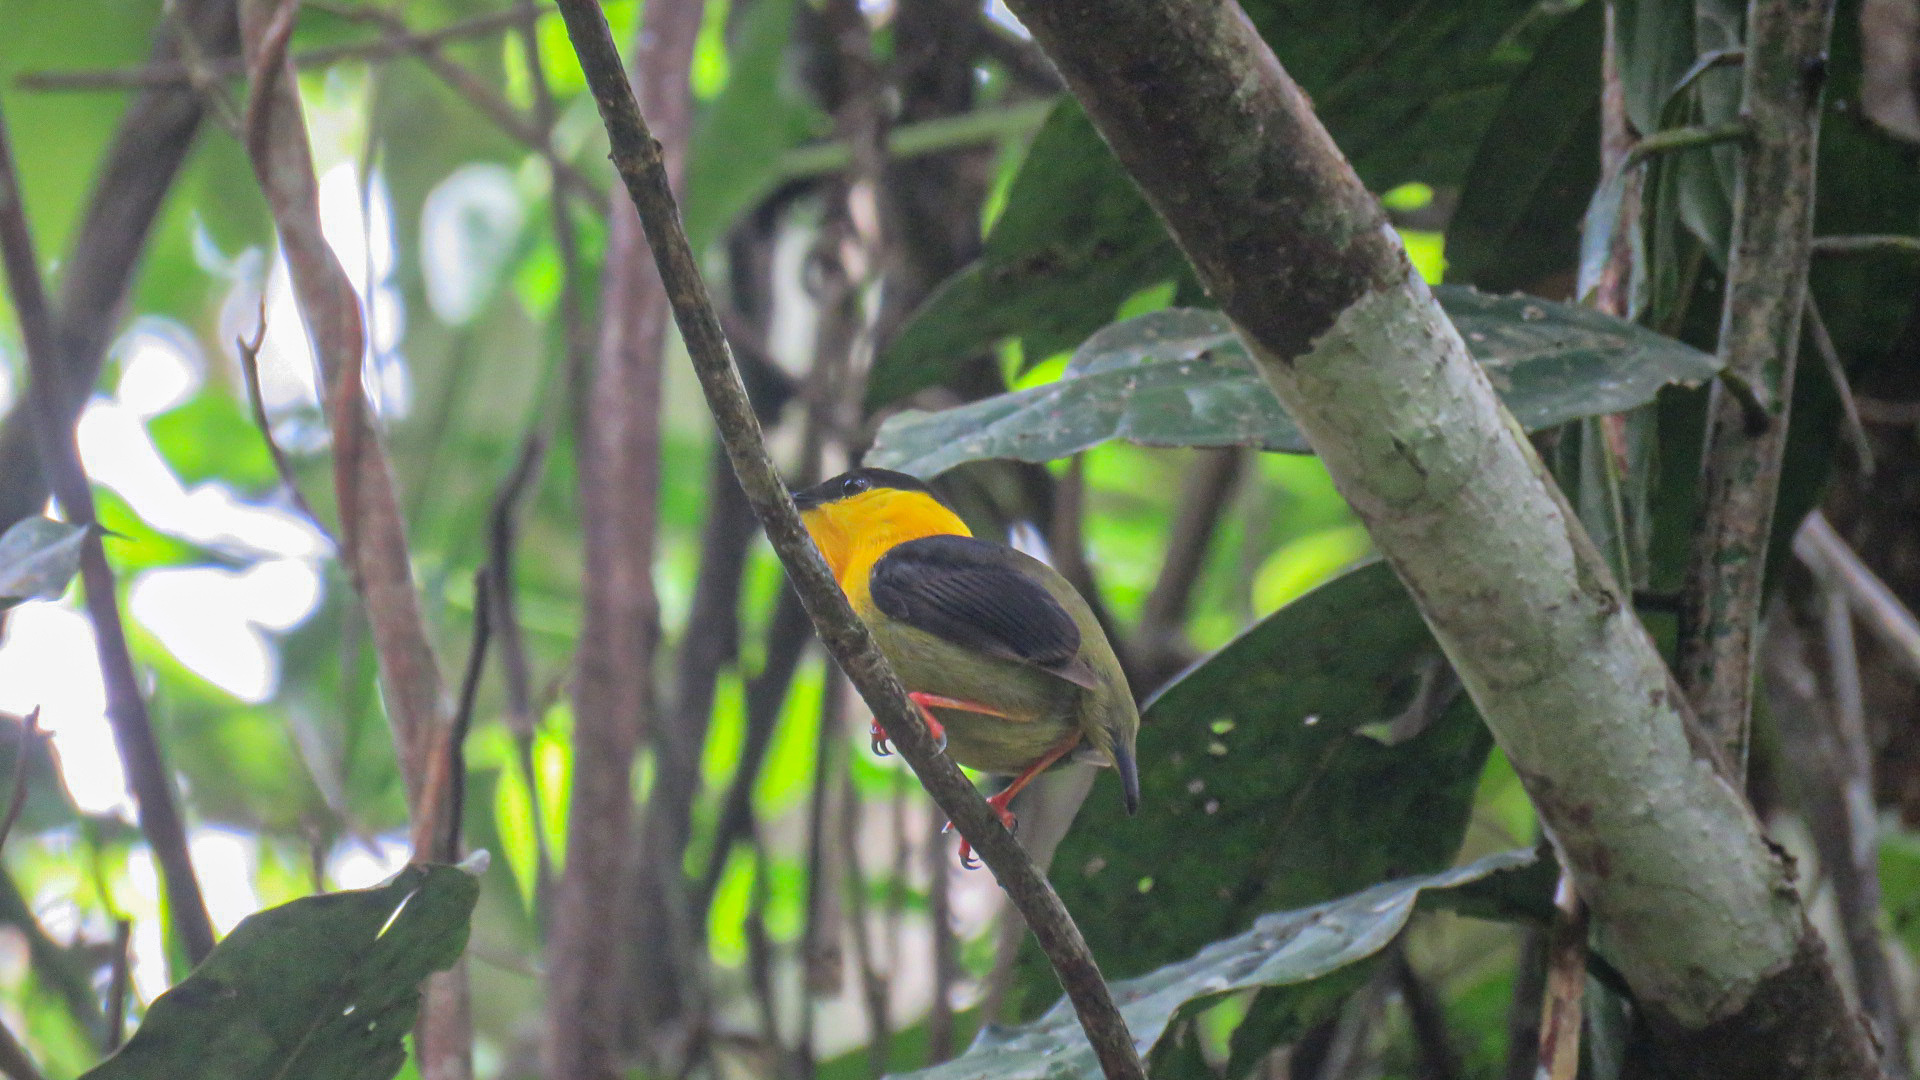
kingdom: Animalia
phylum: Chordata
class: Aves
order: Passeriformes
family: Pipridae
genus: Manacus
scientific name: Manacus vitellinus
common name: Golden-collared manakin
